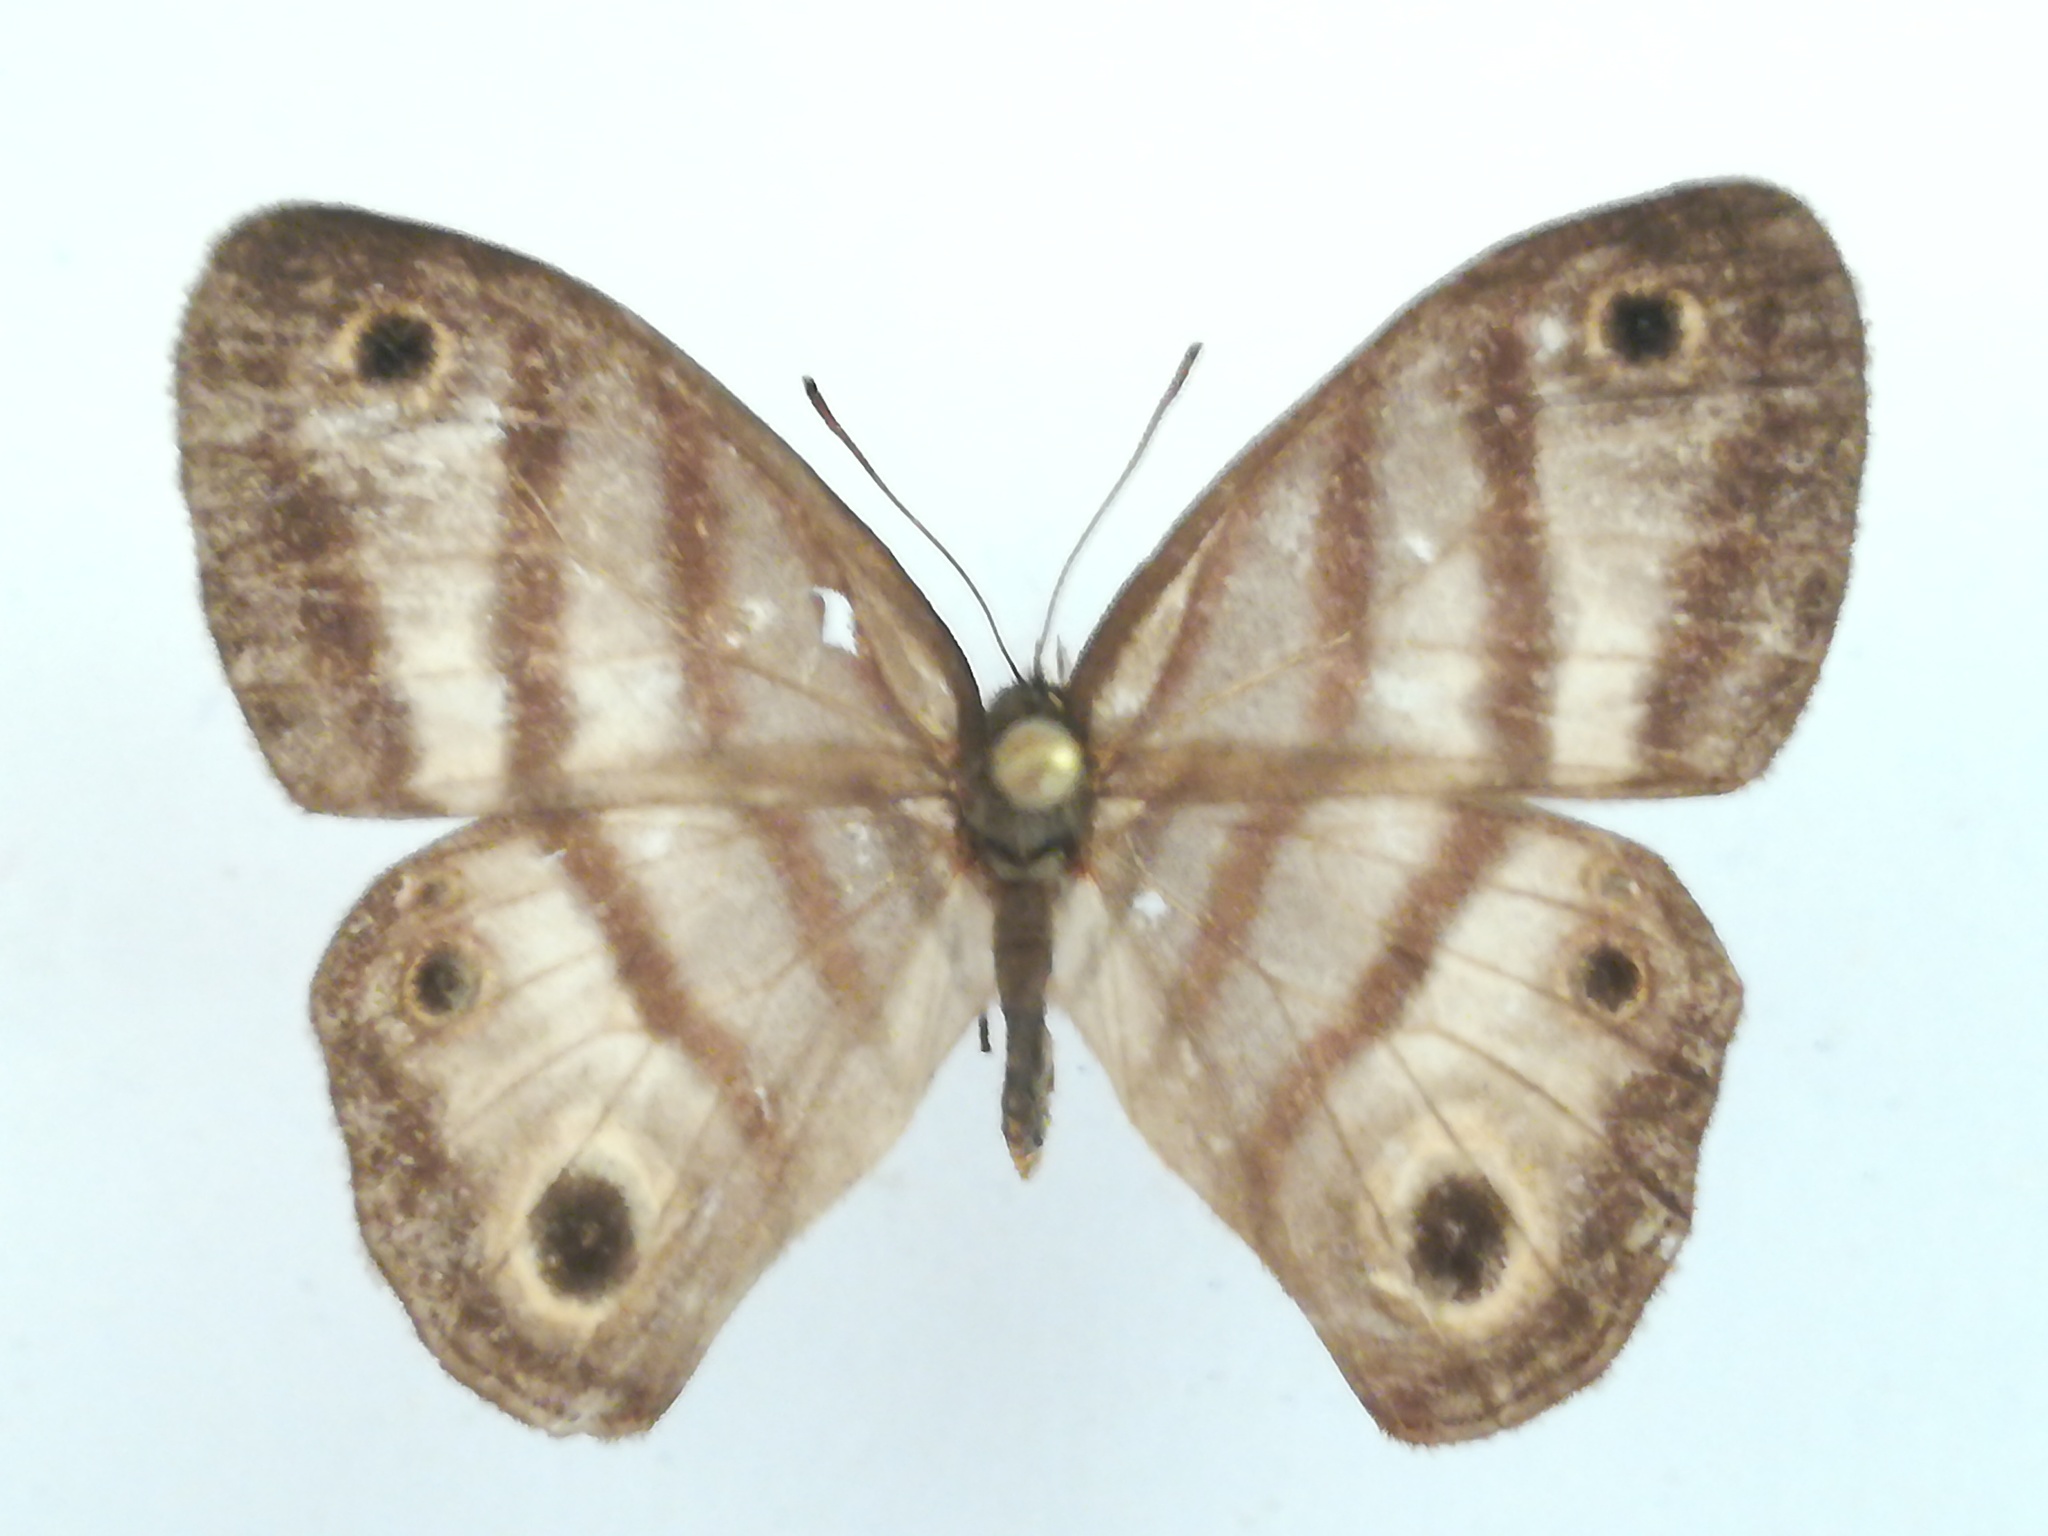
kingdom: Animalia
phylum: Arthropoda
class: Insecta
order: Lepidoptera
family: Nymphalidae
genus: Euptychia
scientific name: Euptychia insolata
